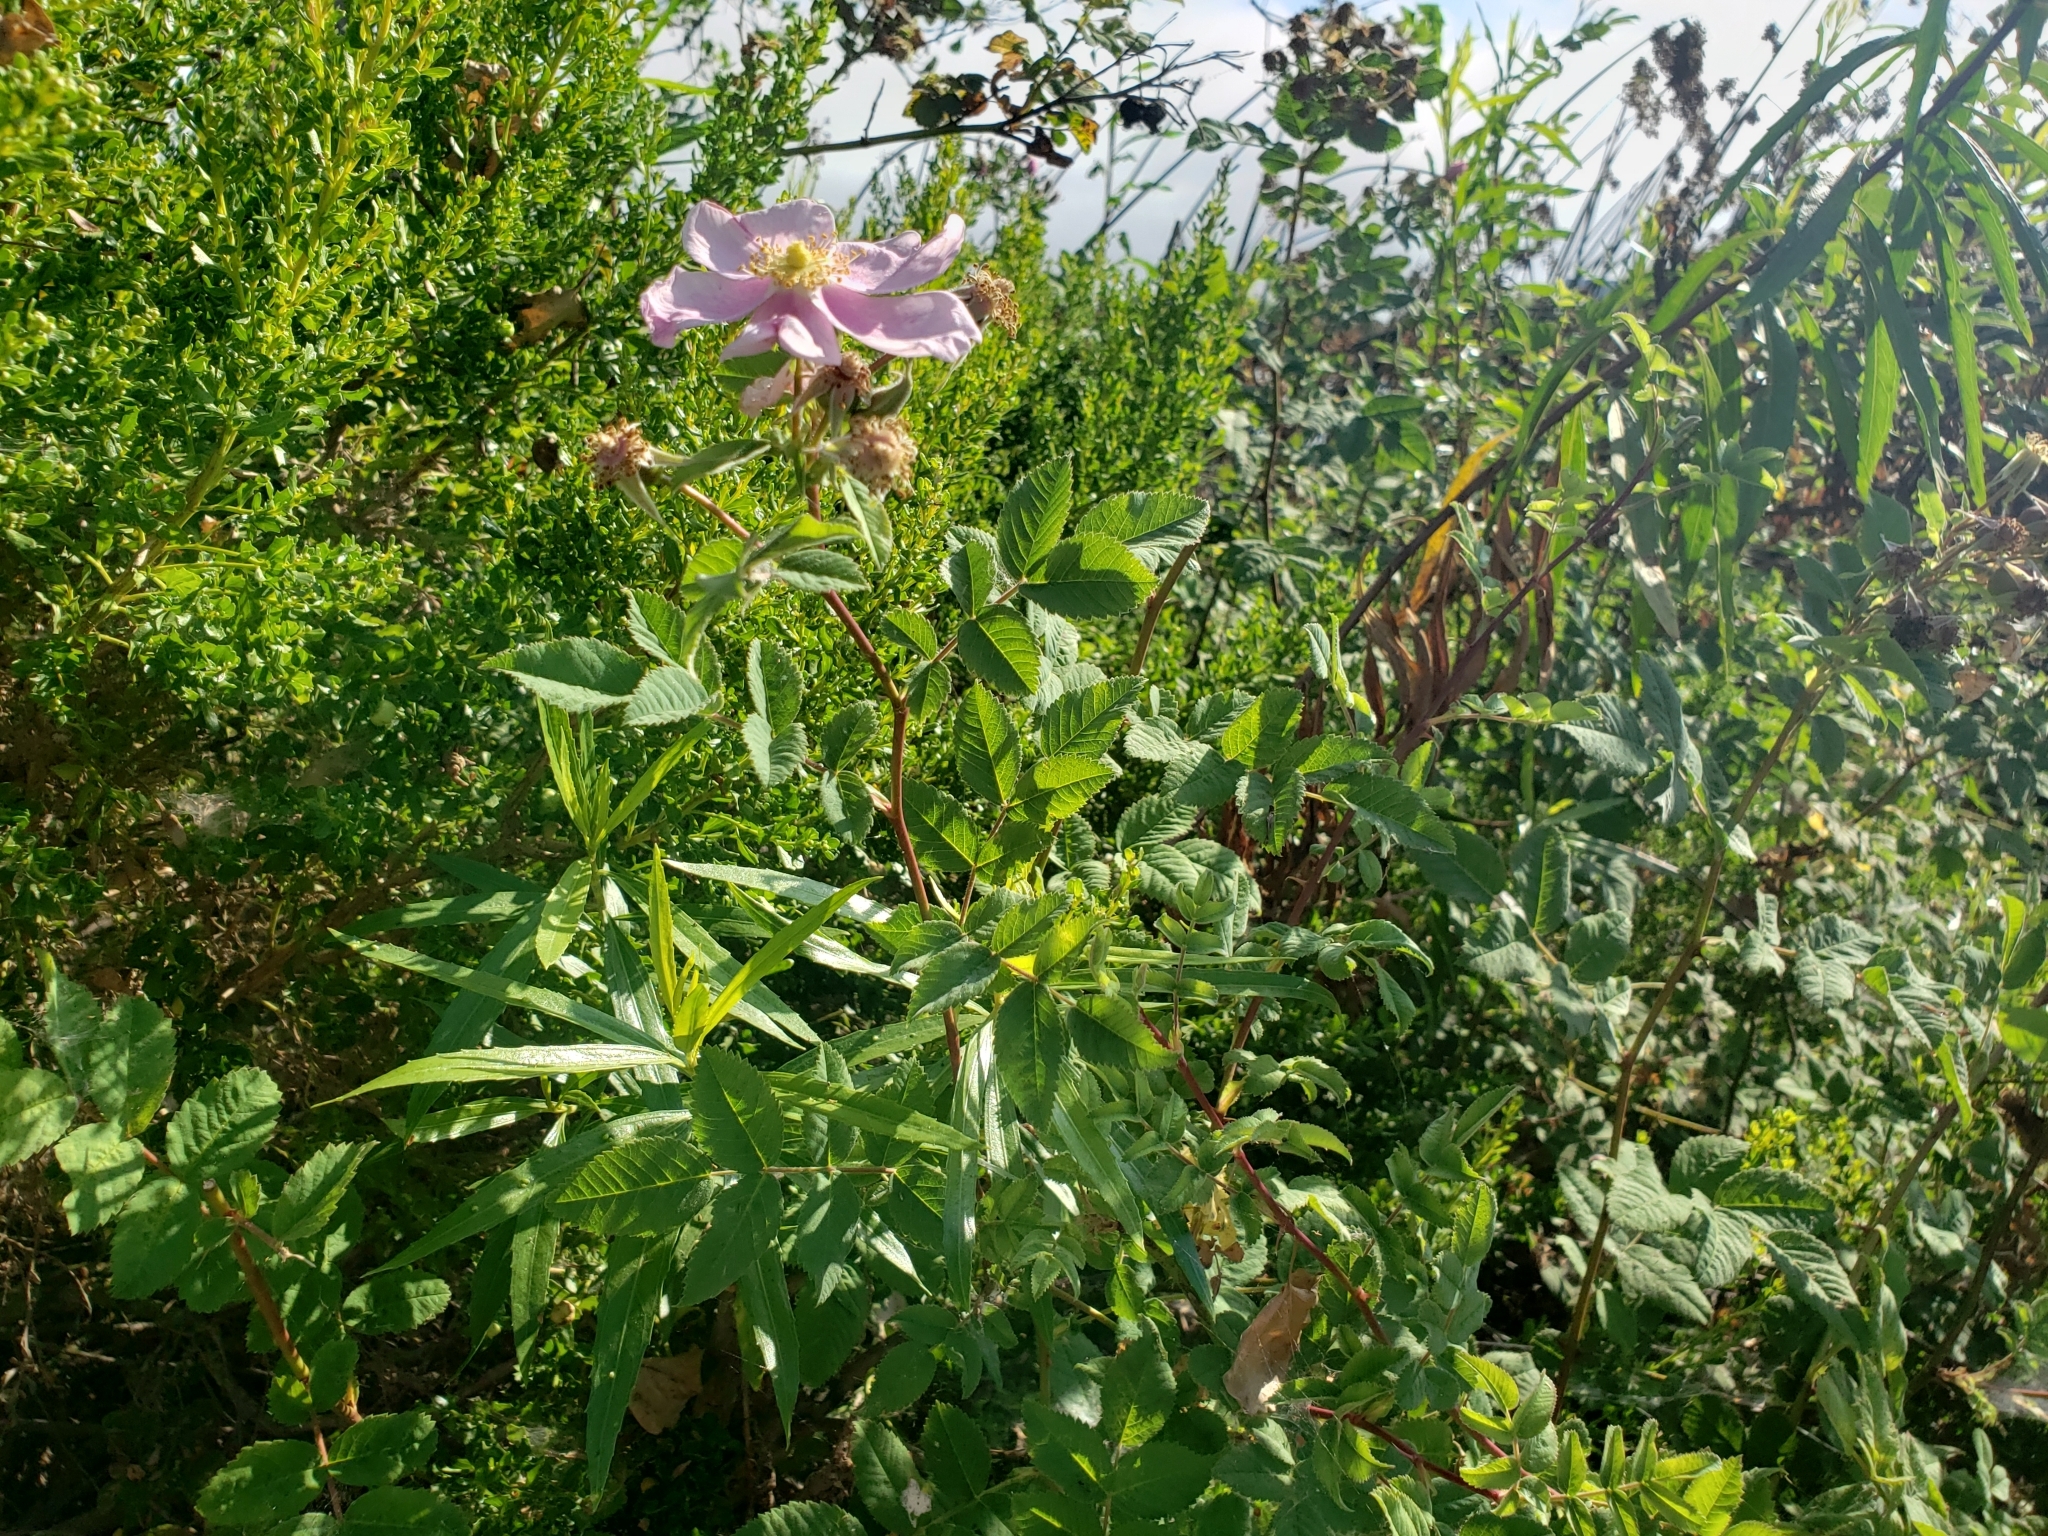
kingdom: Plantae
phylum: Tracheophyta
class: Magnoliopsida
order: Rosales
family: Rosaceae
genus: Rosa
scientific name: Rosa californica
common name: California rose
